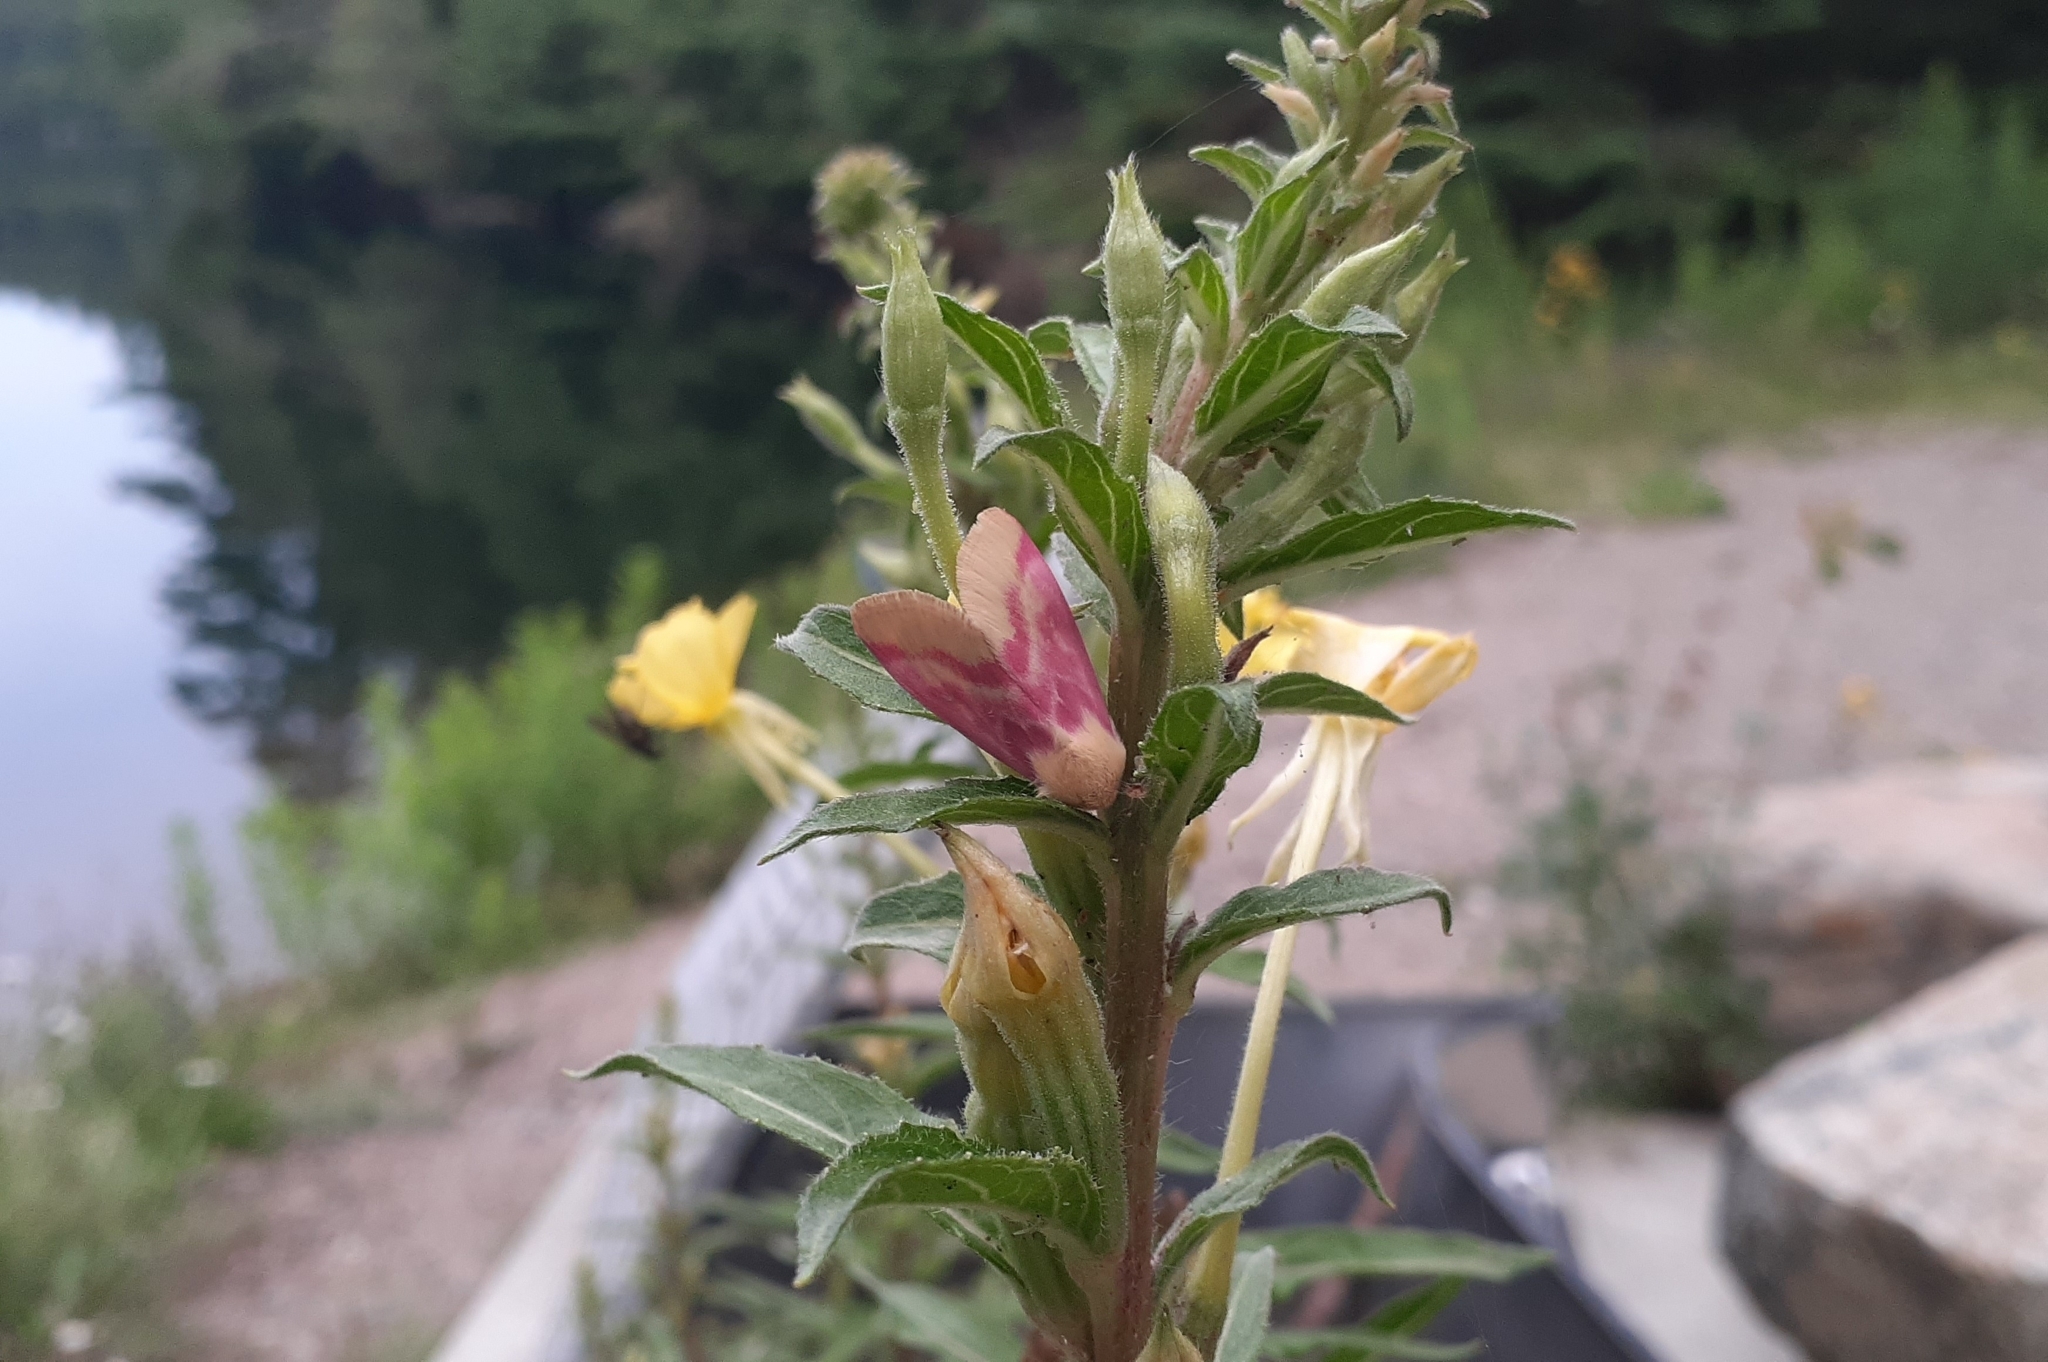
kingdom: Animalia
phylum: Arthropoda
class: Insecta
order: Lepidoptera
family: Noctuidae
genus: Schinia
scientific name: Schinia florida
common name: Primrose moth
